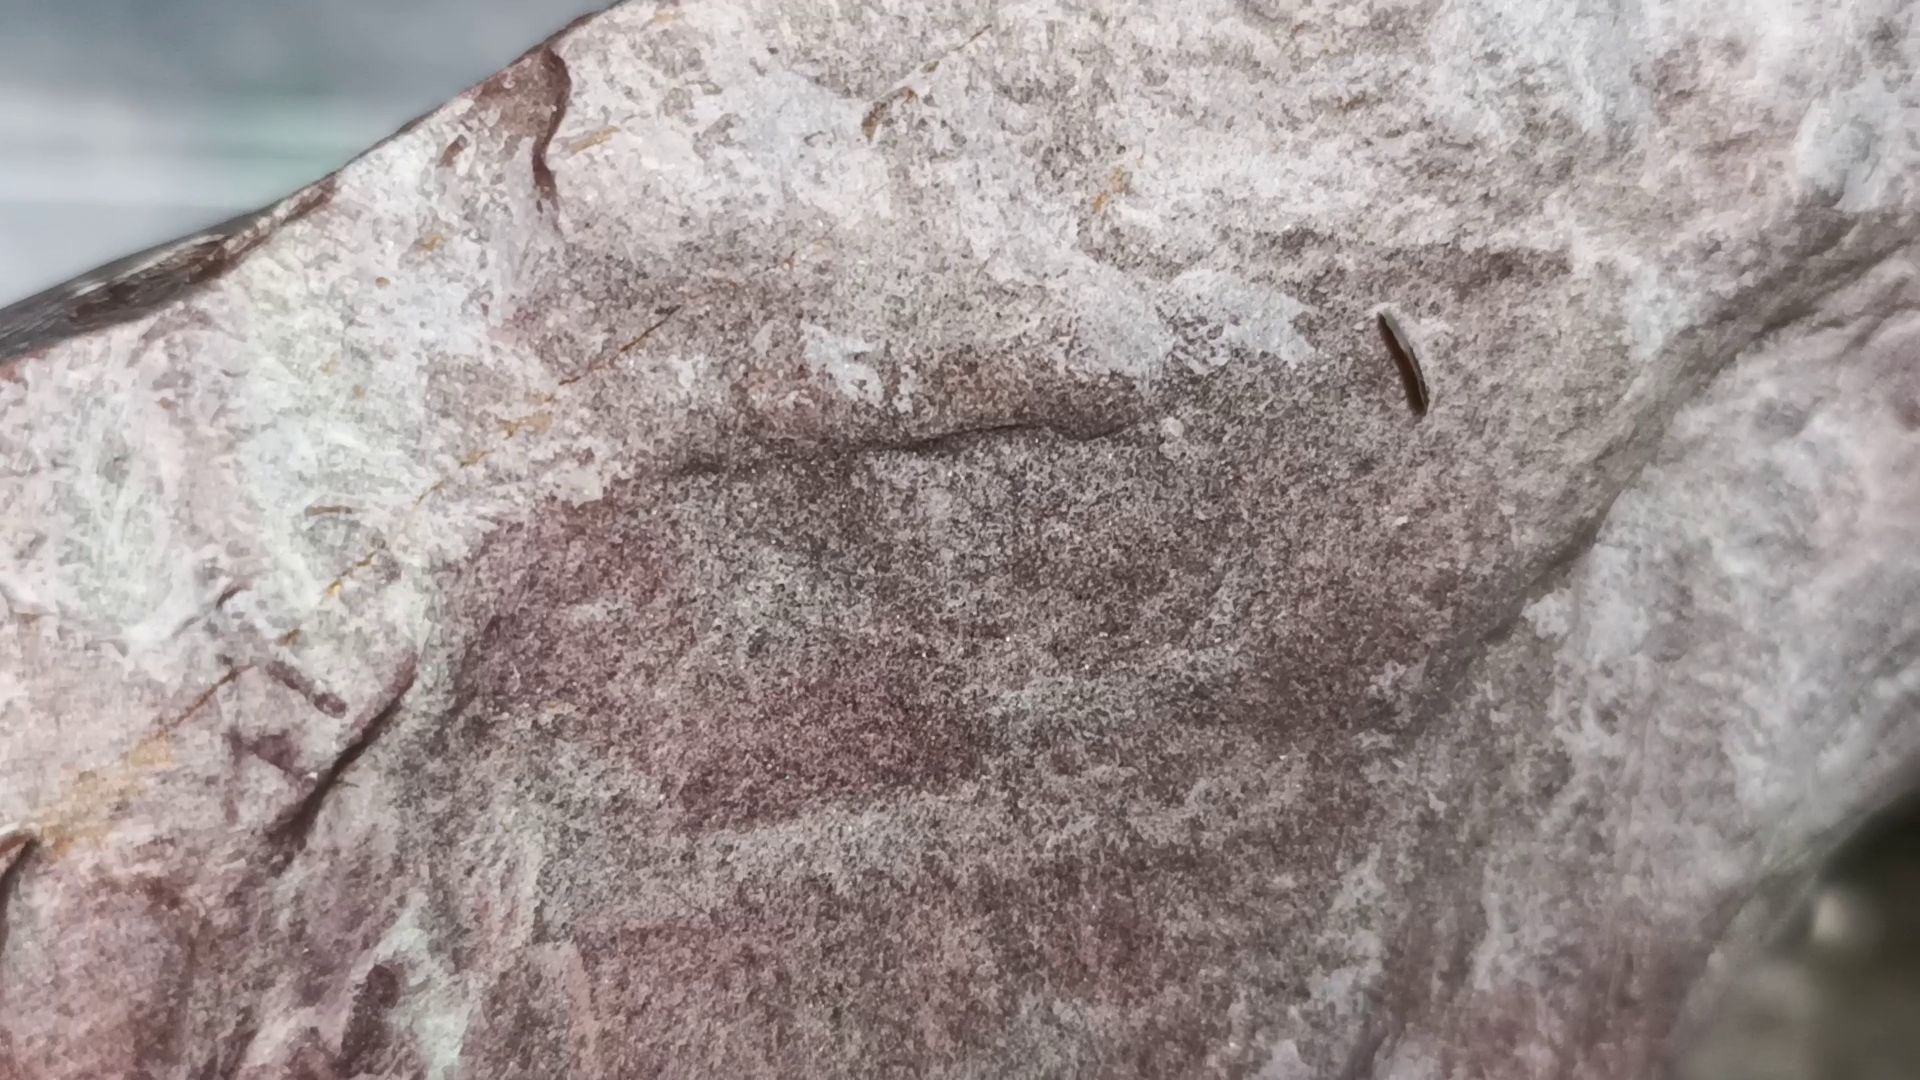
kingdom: Animalia
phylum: Platyhelminthes
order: Tricladida
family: Procerodidae
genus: Procerodes
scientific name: Procerodes littoralis
